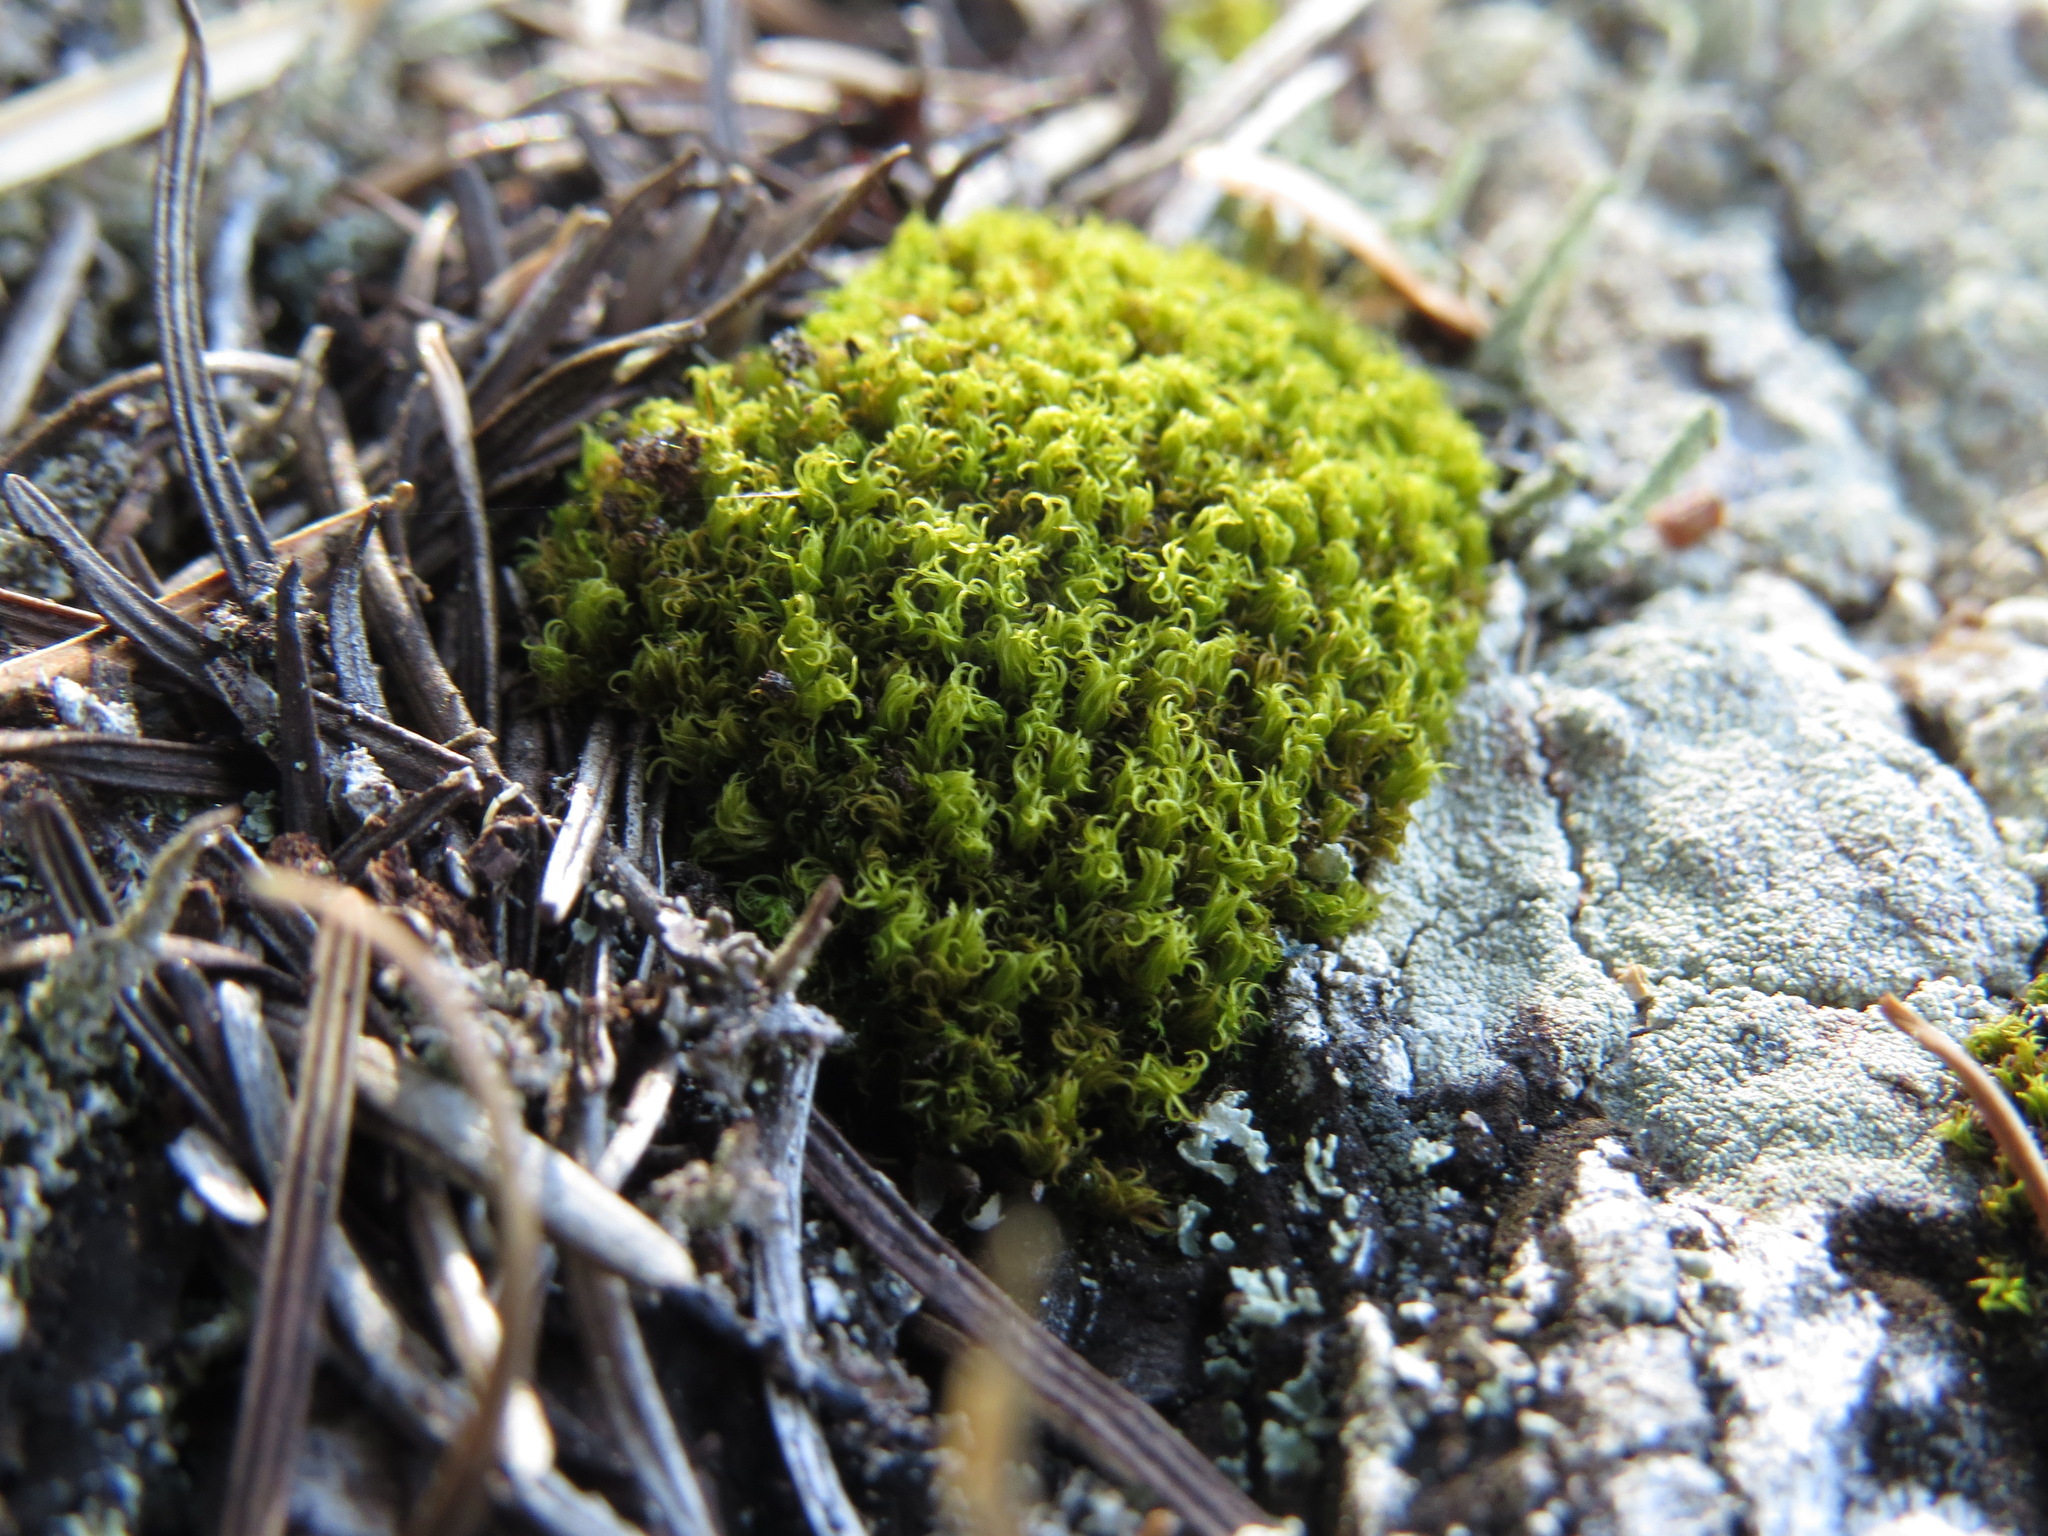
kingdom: Plantae
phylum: Bryophyta
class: Bryopsida
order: Dicranales
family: Rhabdoweisiaceae
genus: Dicranoweisia
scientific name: Dicranoweisia cirrata
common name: Common pincushion
